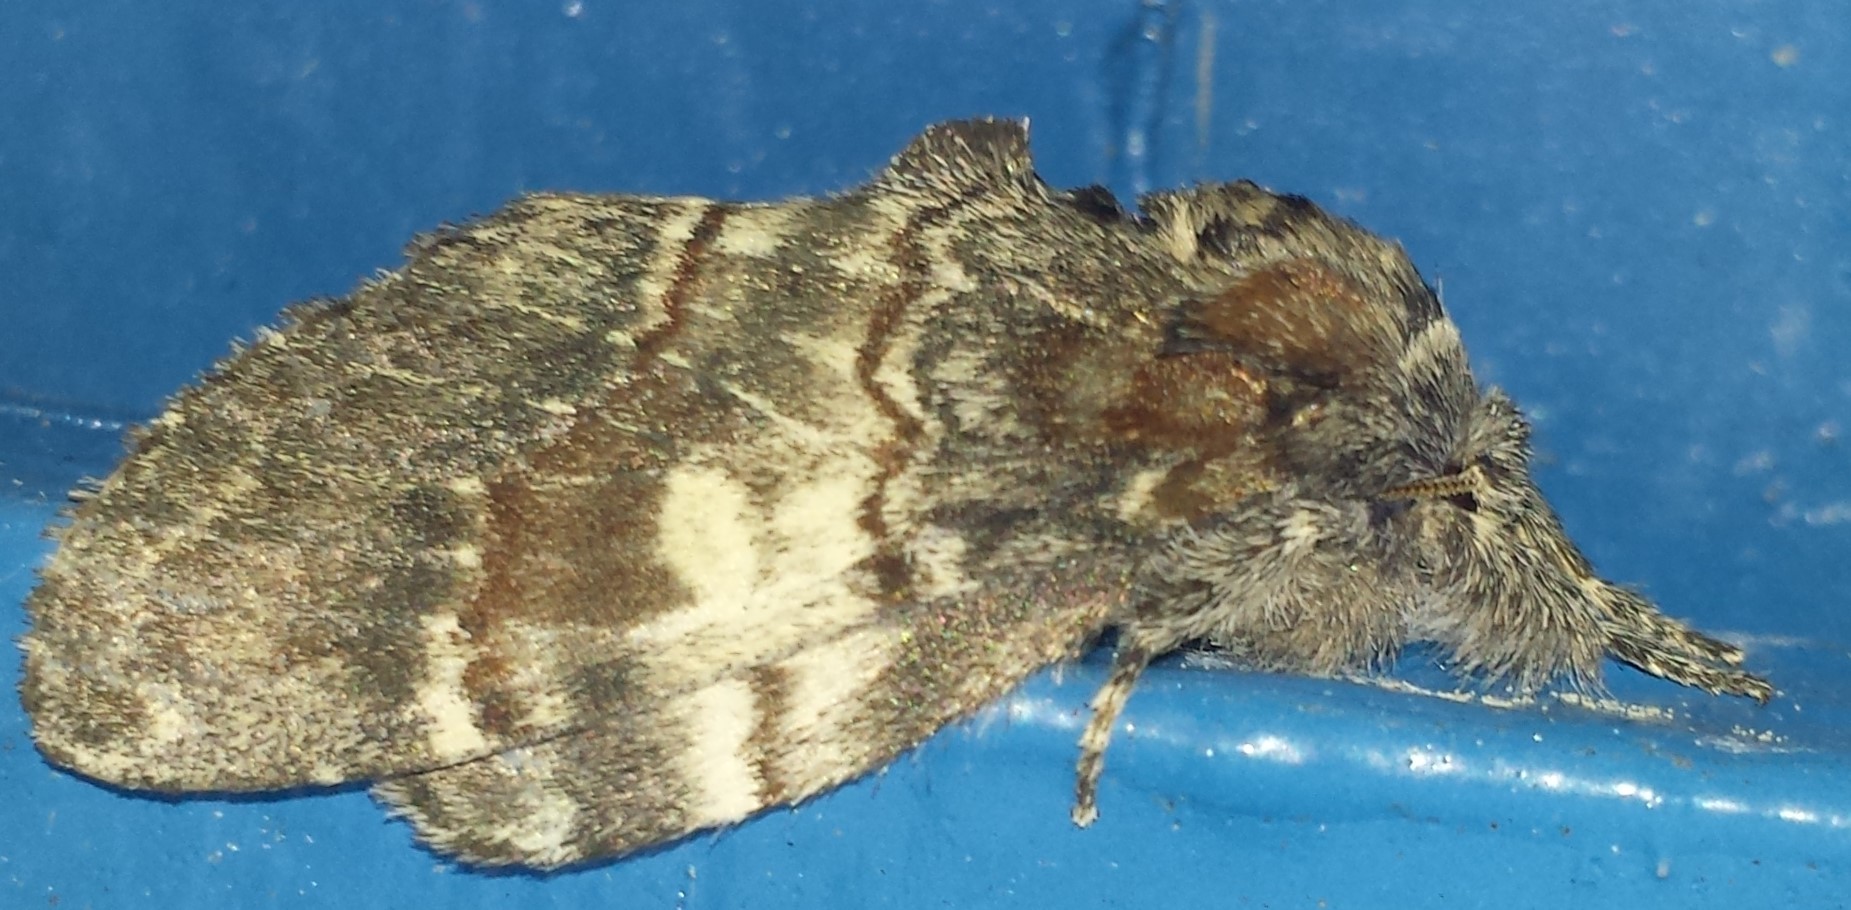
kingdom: Animalia
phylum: Arthropoda
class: Insecta
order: Lepidoptera
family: Notodontidae
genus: Peridea
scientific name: Peridea ferruginea
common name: Chocolate prominent
